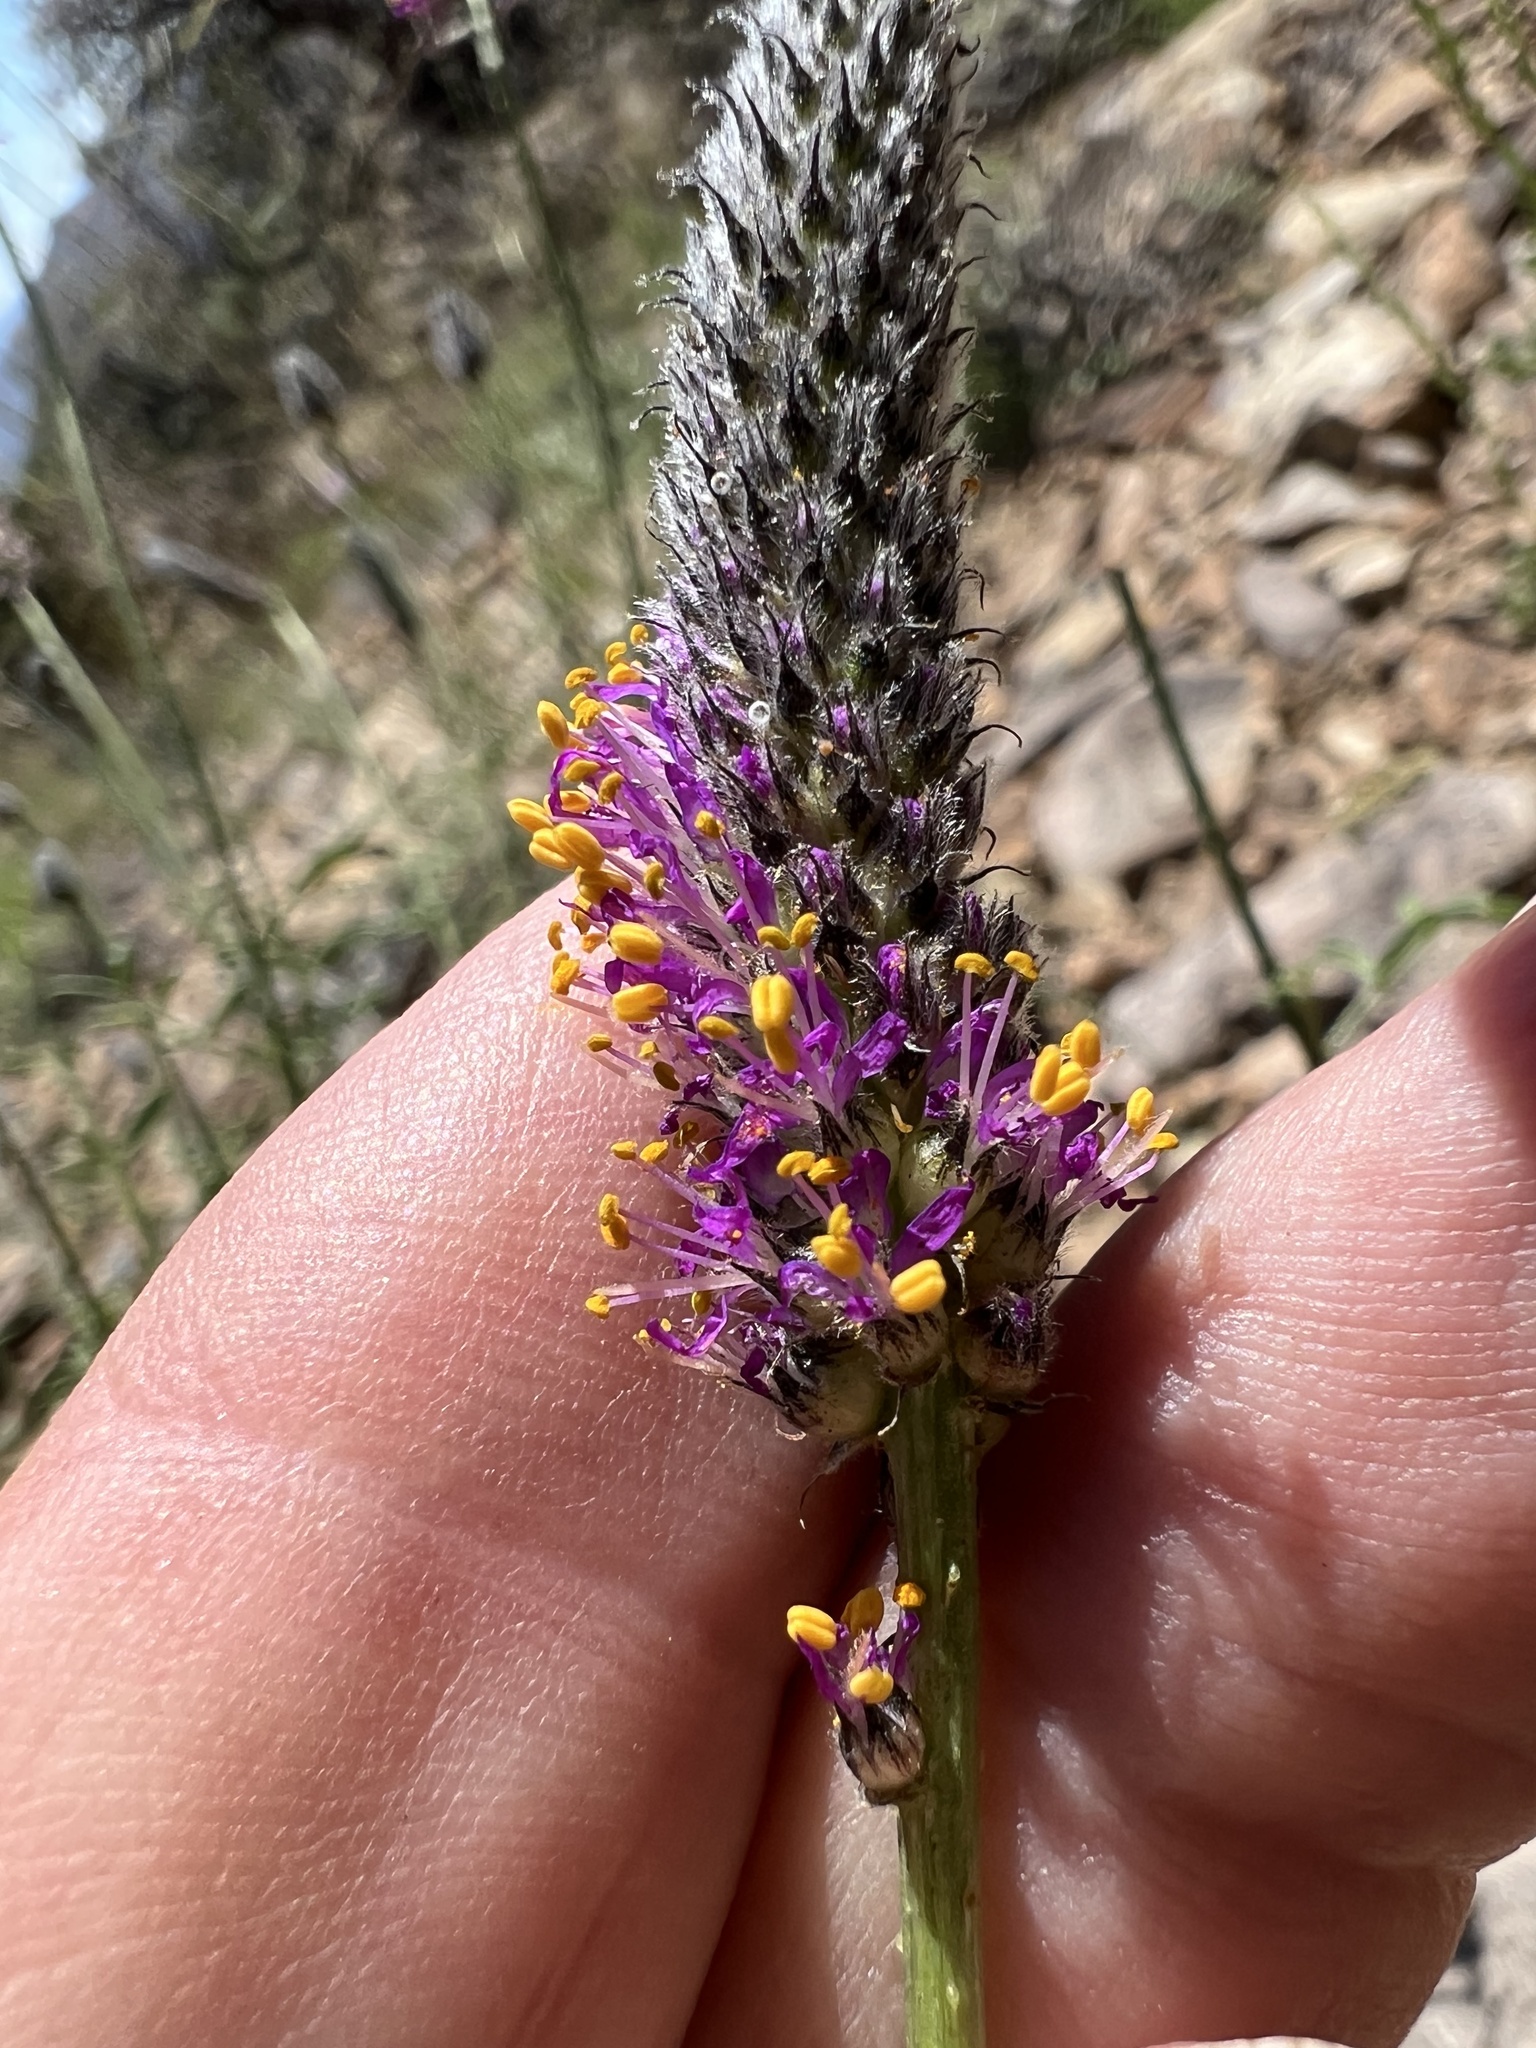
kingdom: Plantae
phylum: Tracheophyta
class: Magnoliopsida
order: Fabales
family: Fabaceae
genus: Dalea
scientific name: Dalea searlsiae
